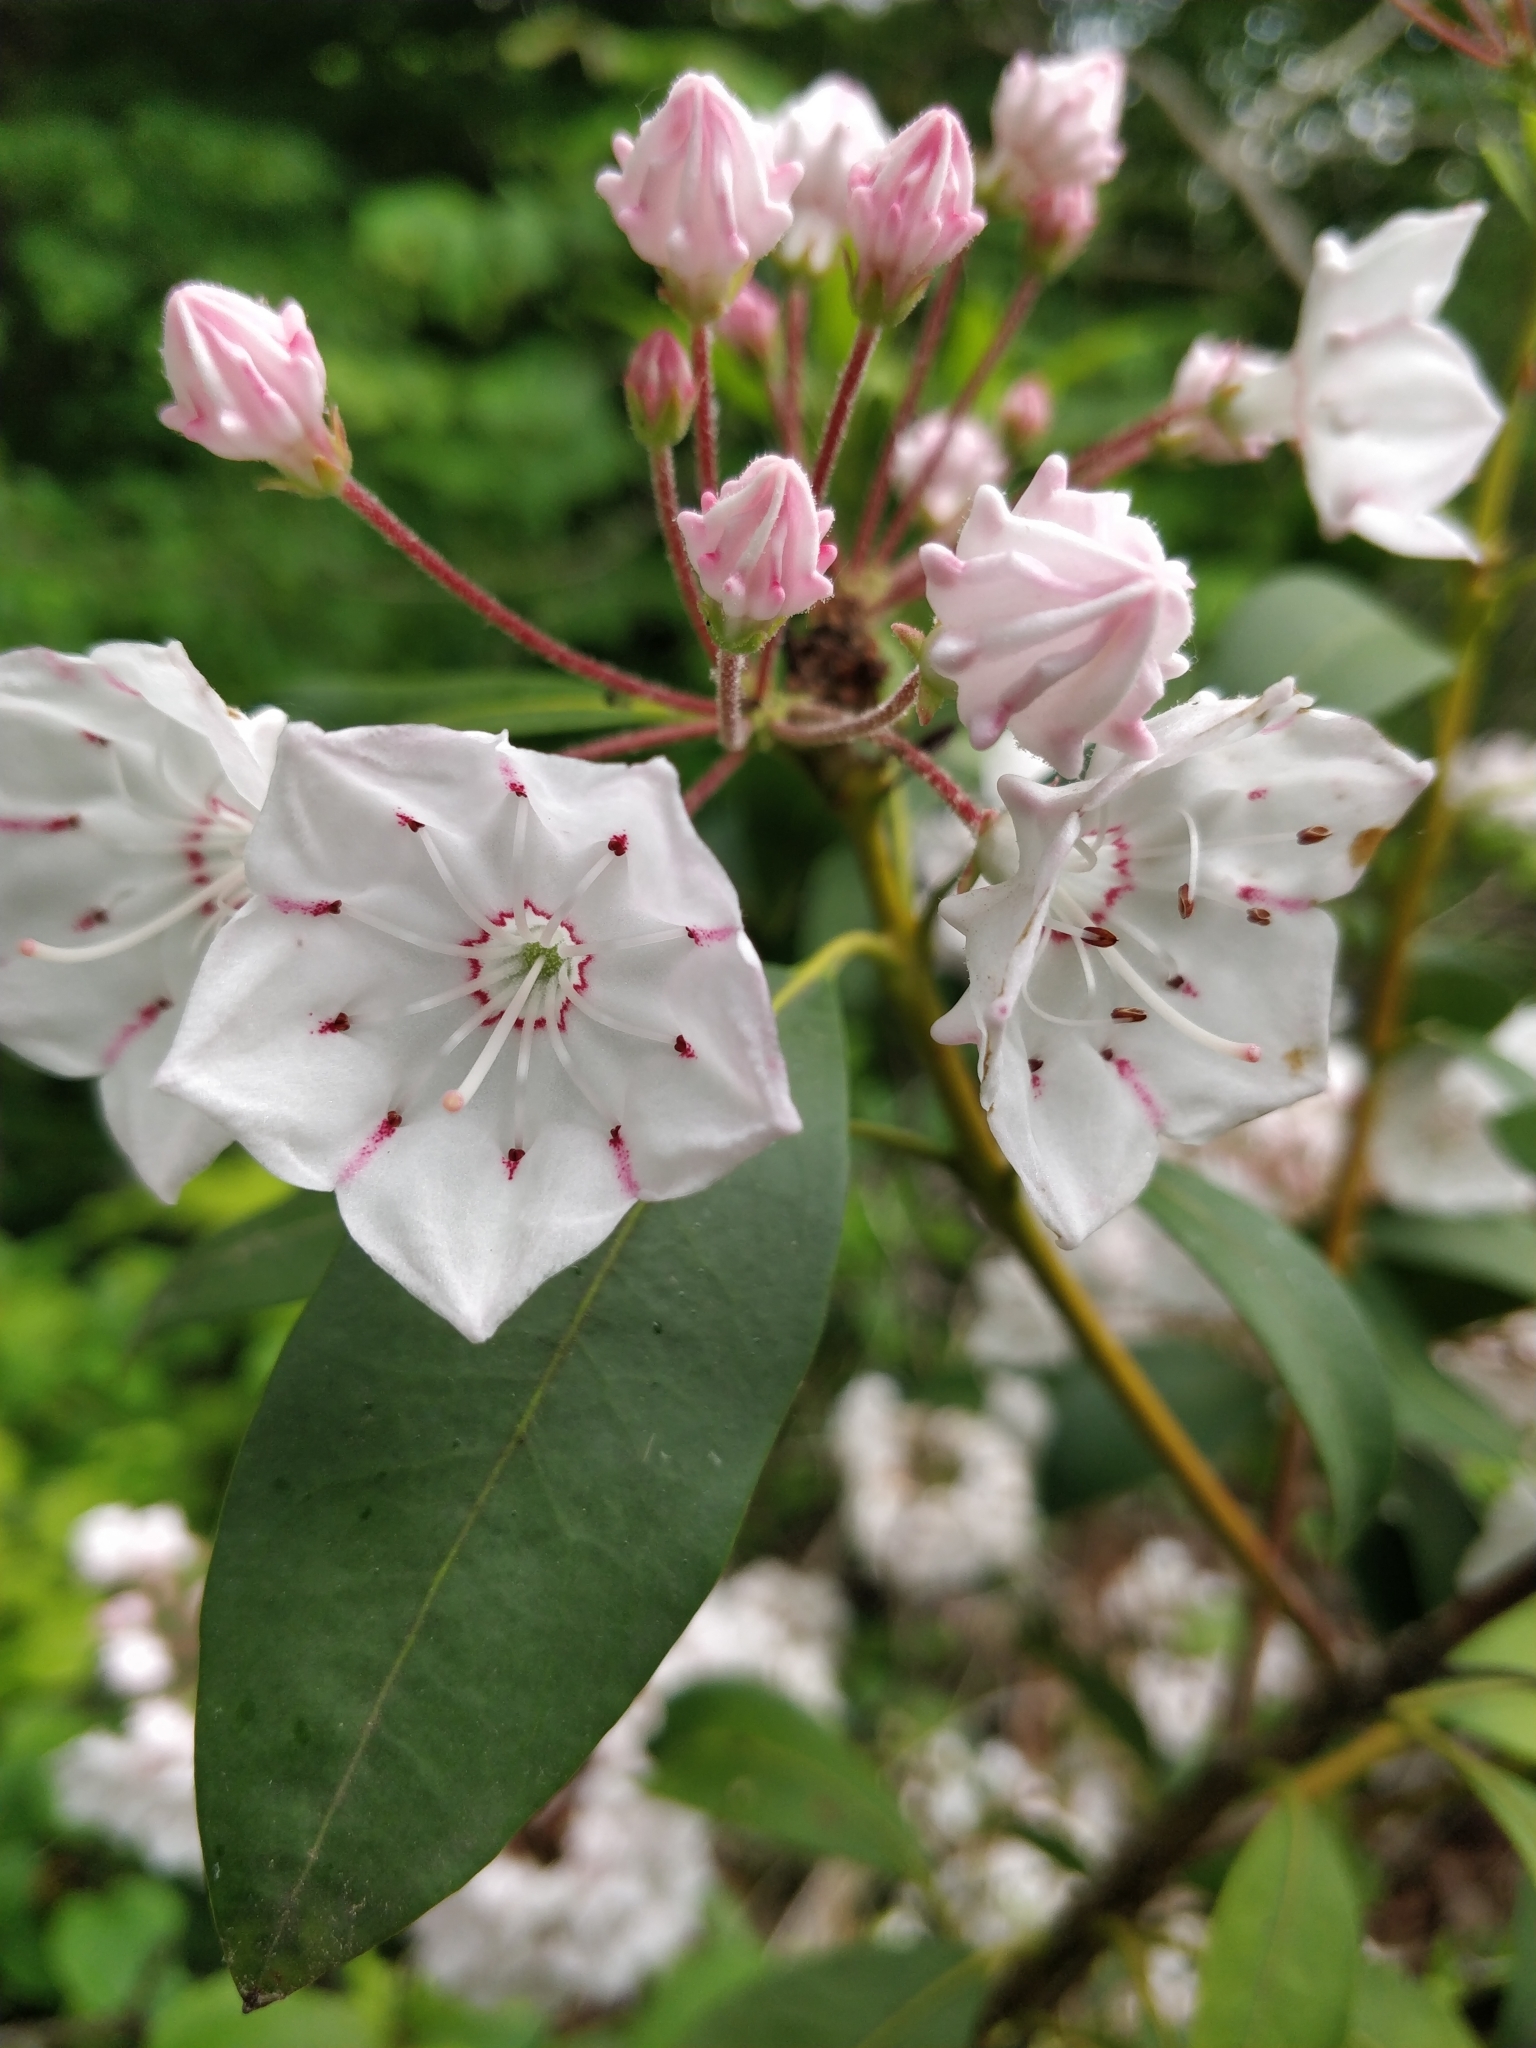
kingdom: Plantae
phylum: Tracheophyta
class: Magnoliopsida
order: Ericales
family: Ericaceae
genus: Kalmia
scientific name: Kalmia latifolia
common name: Mountain-laurel
